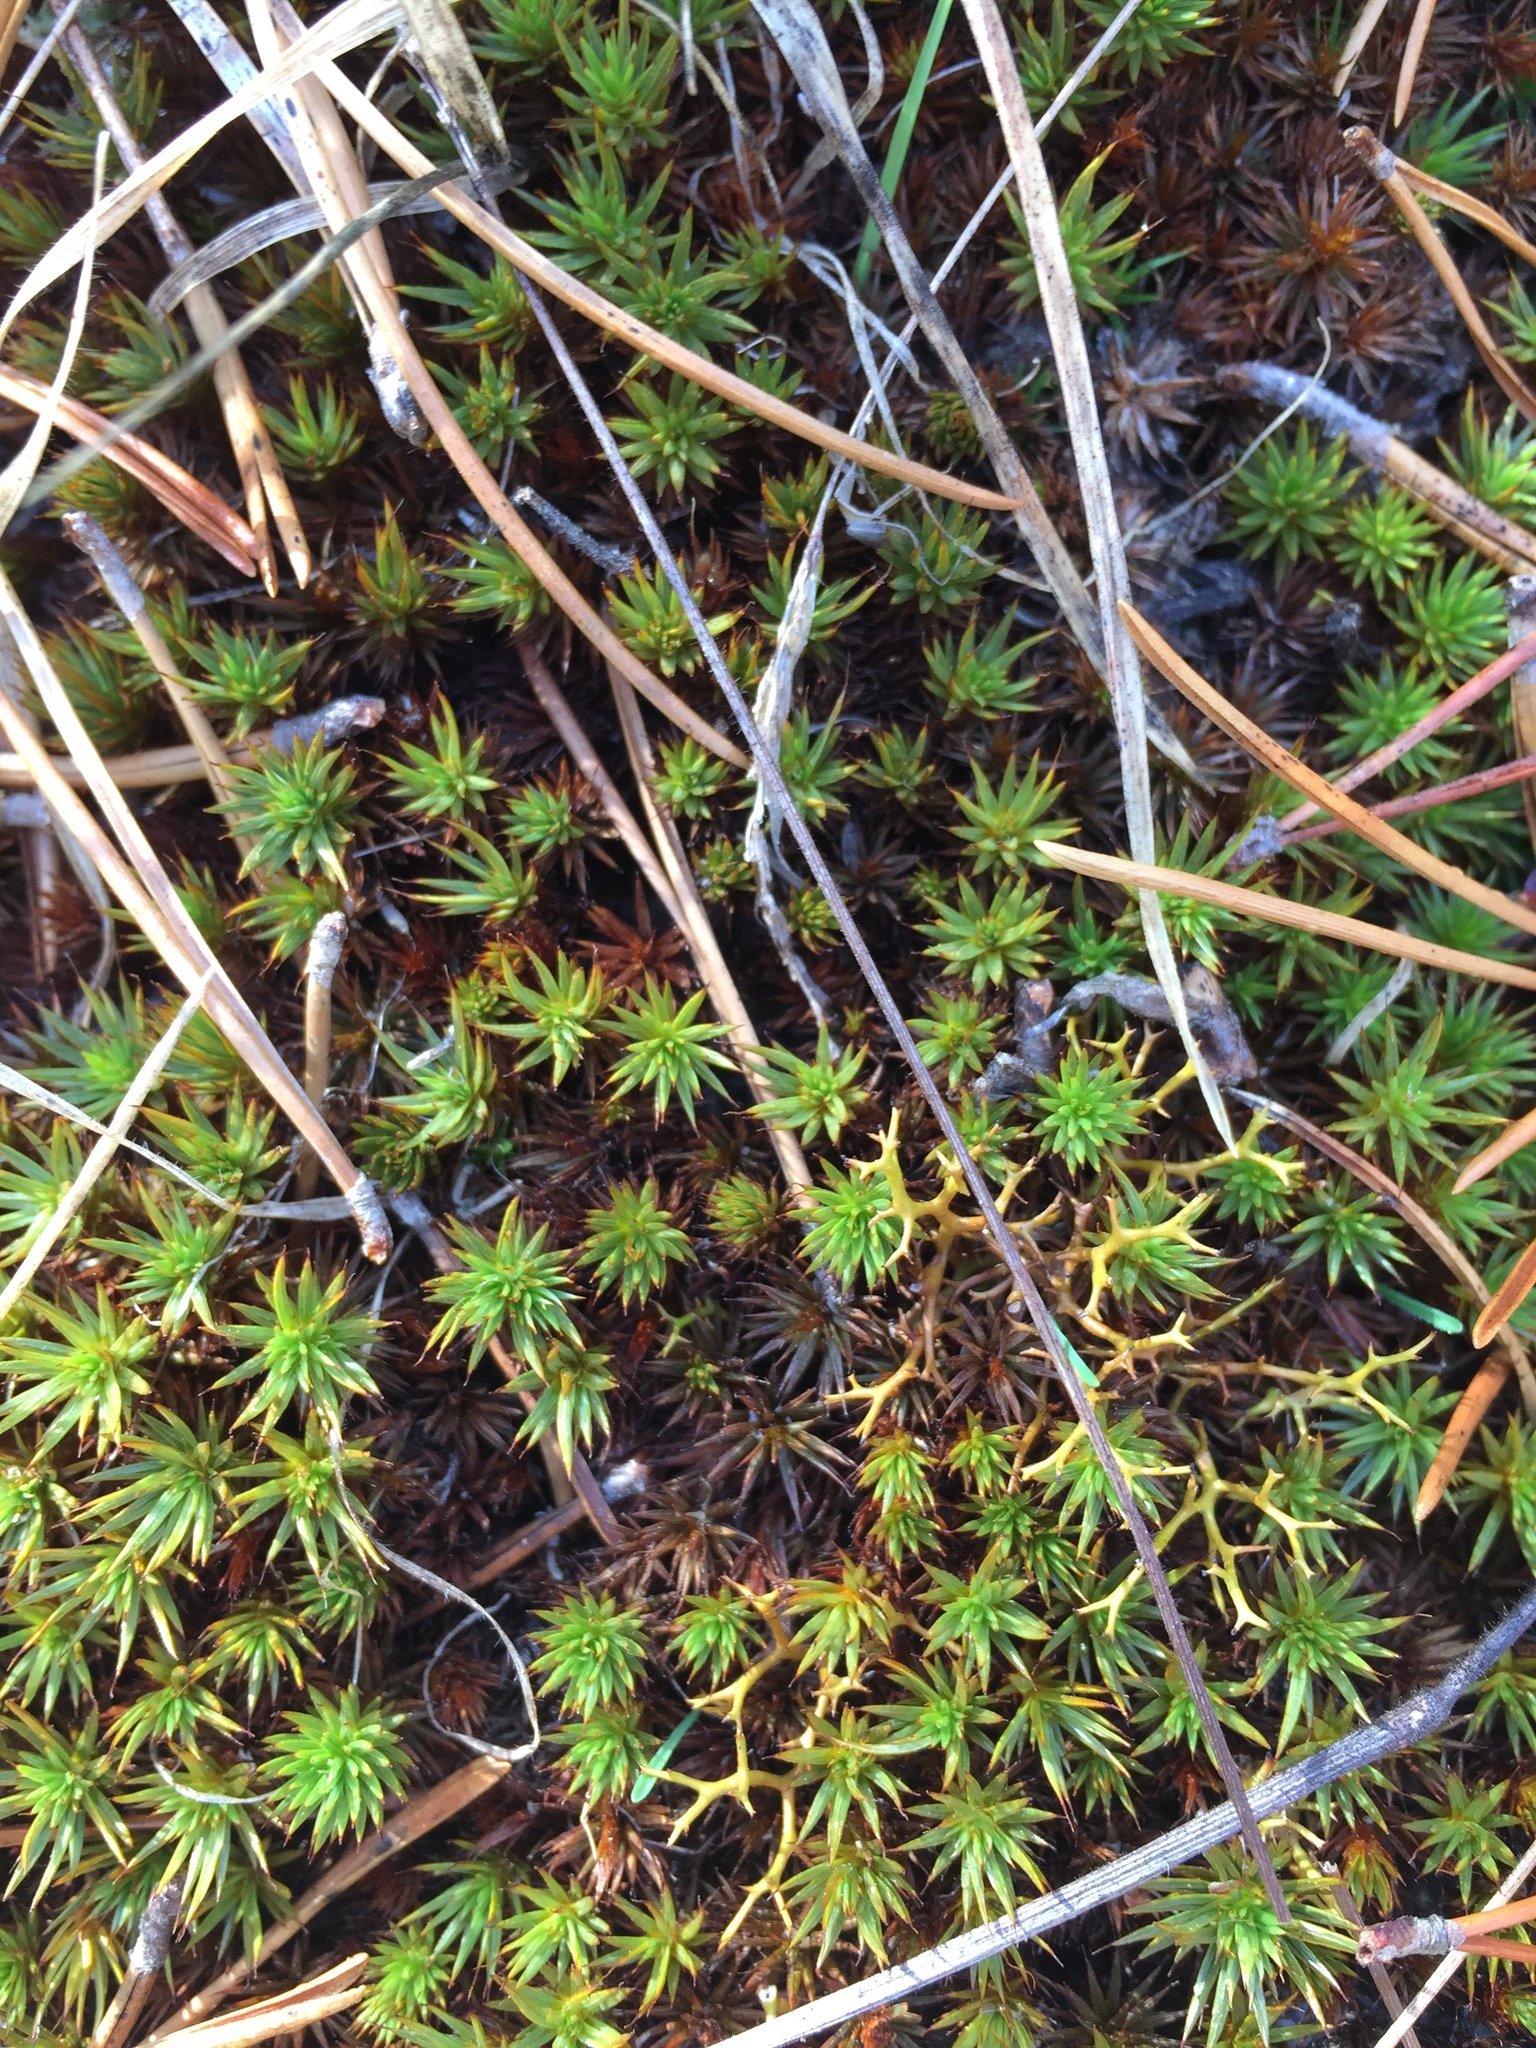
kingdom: Plantae
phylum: Bryophyta
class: Polytrichopsida
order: Polytrichales
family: Polytrichaceae
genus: Polytrichum
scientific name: Polytrichum juniperinum
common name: Juniper haircap moss
